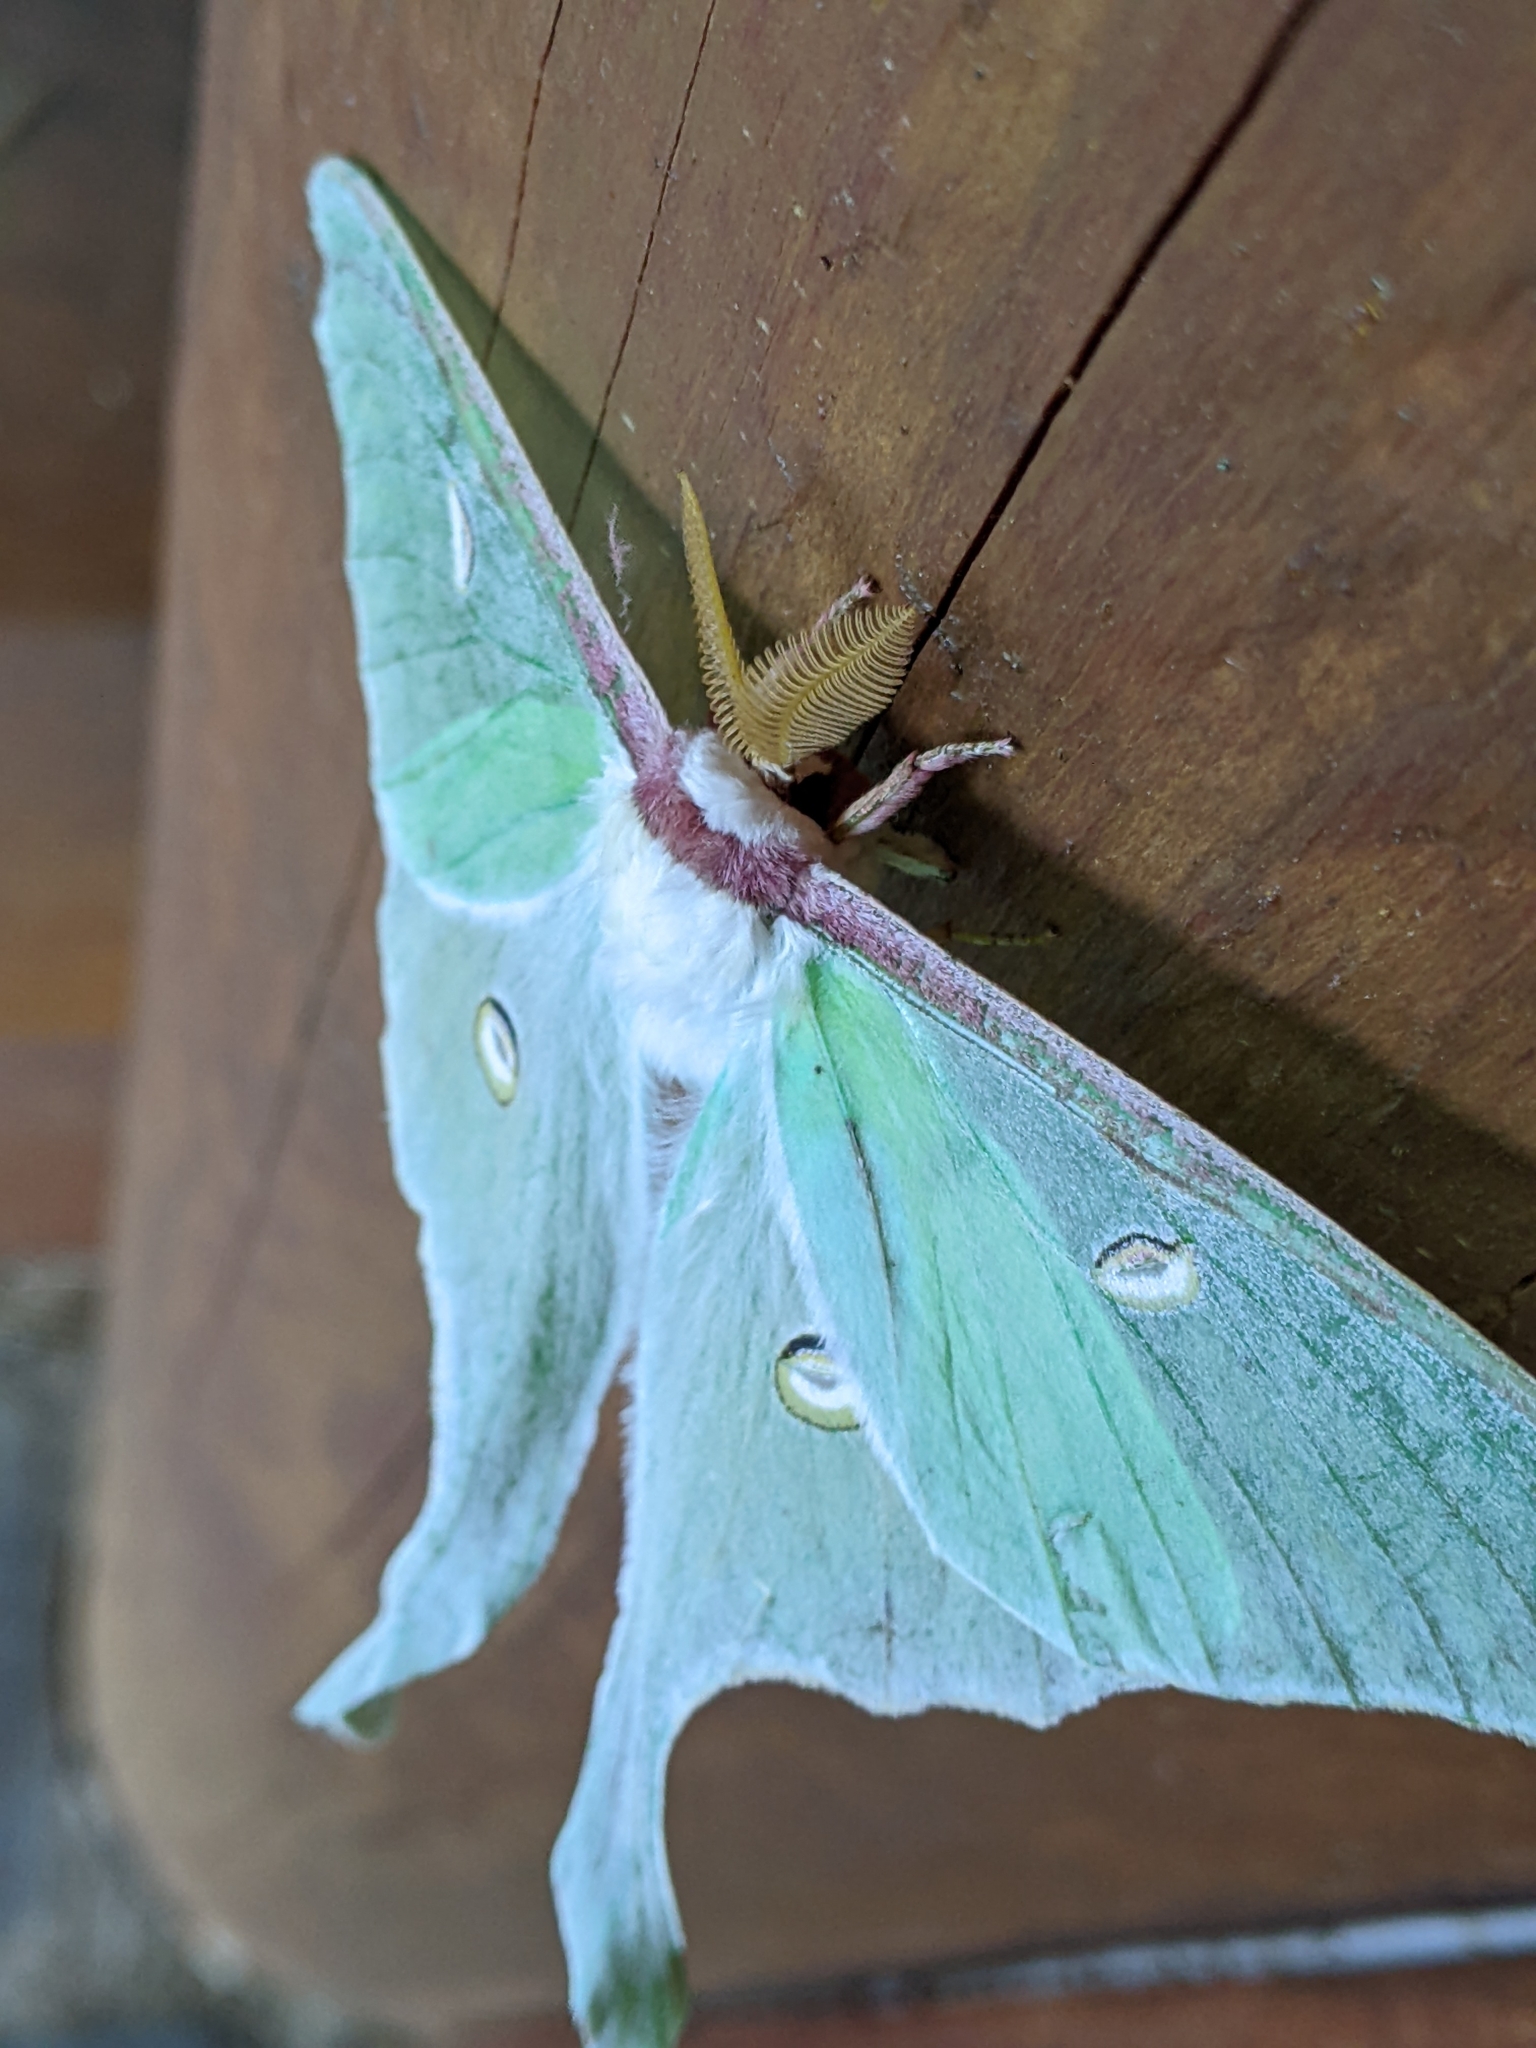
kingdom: Animalia
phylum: Arthropoda
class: Insecta
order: Lepidoptera
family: Saturniidae
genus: Actias
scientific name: Actias luna
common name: Luna moth
